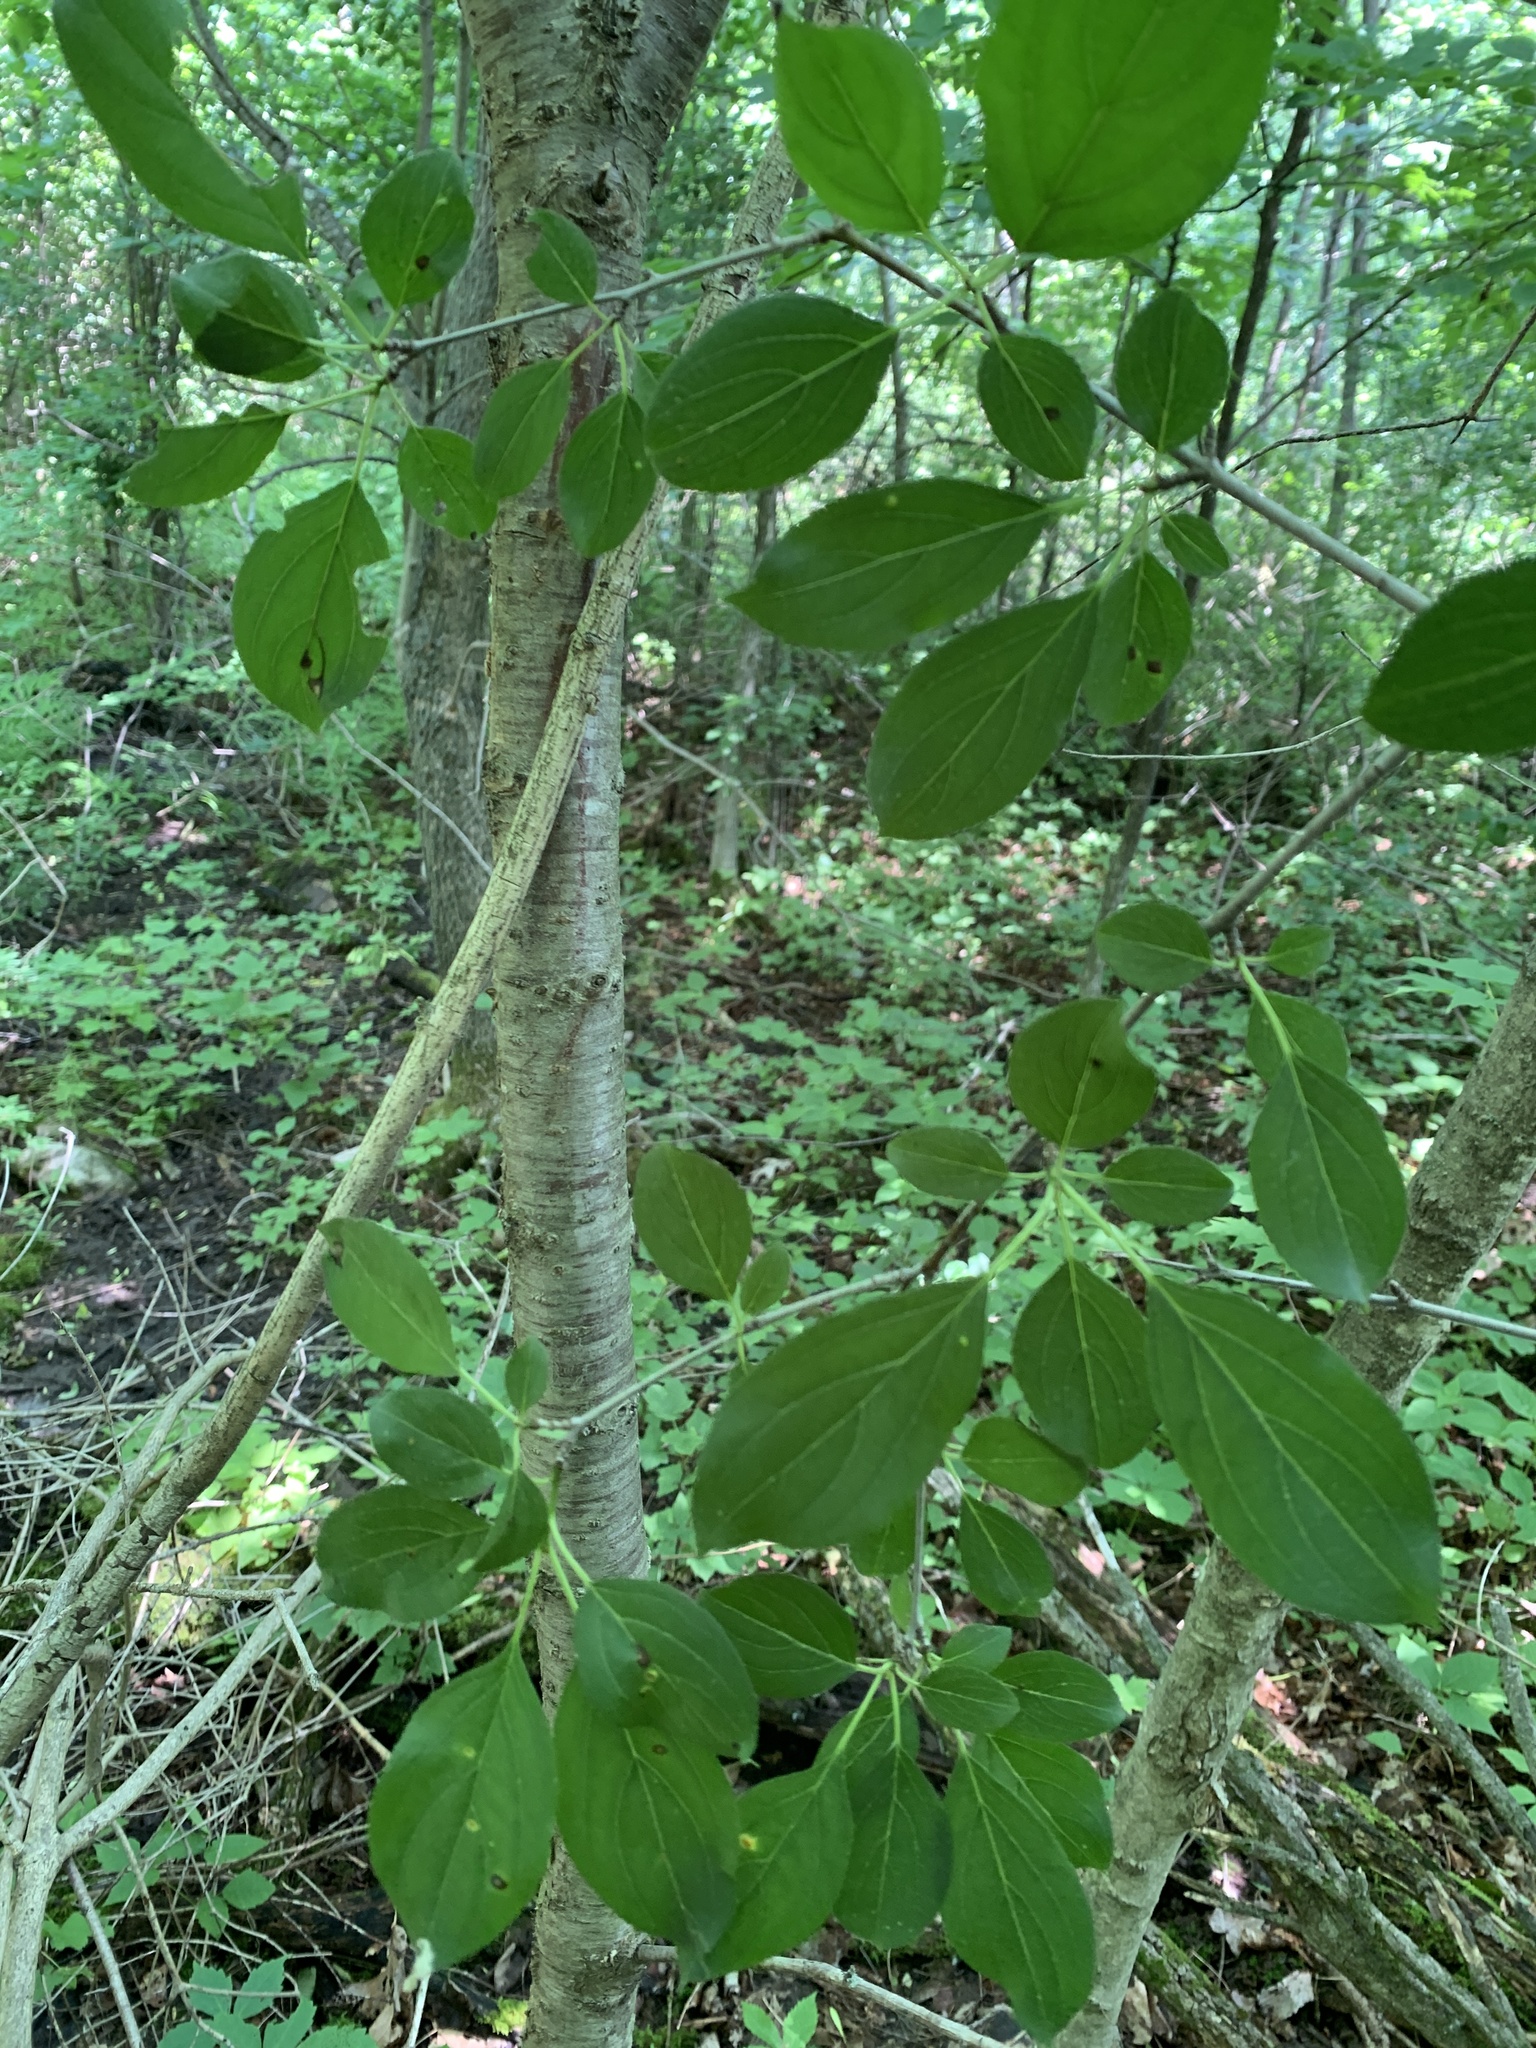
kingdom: Plantae
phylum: Tracheophyta
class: Magnoliopsida
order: Rosales
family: Rhamnaceae
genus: Rhamnus
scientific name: Rhamnus cathartica
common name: Common buckthorn
